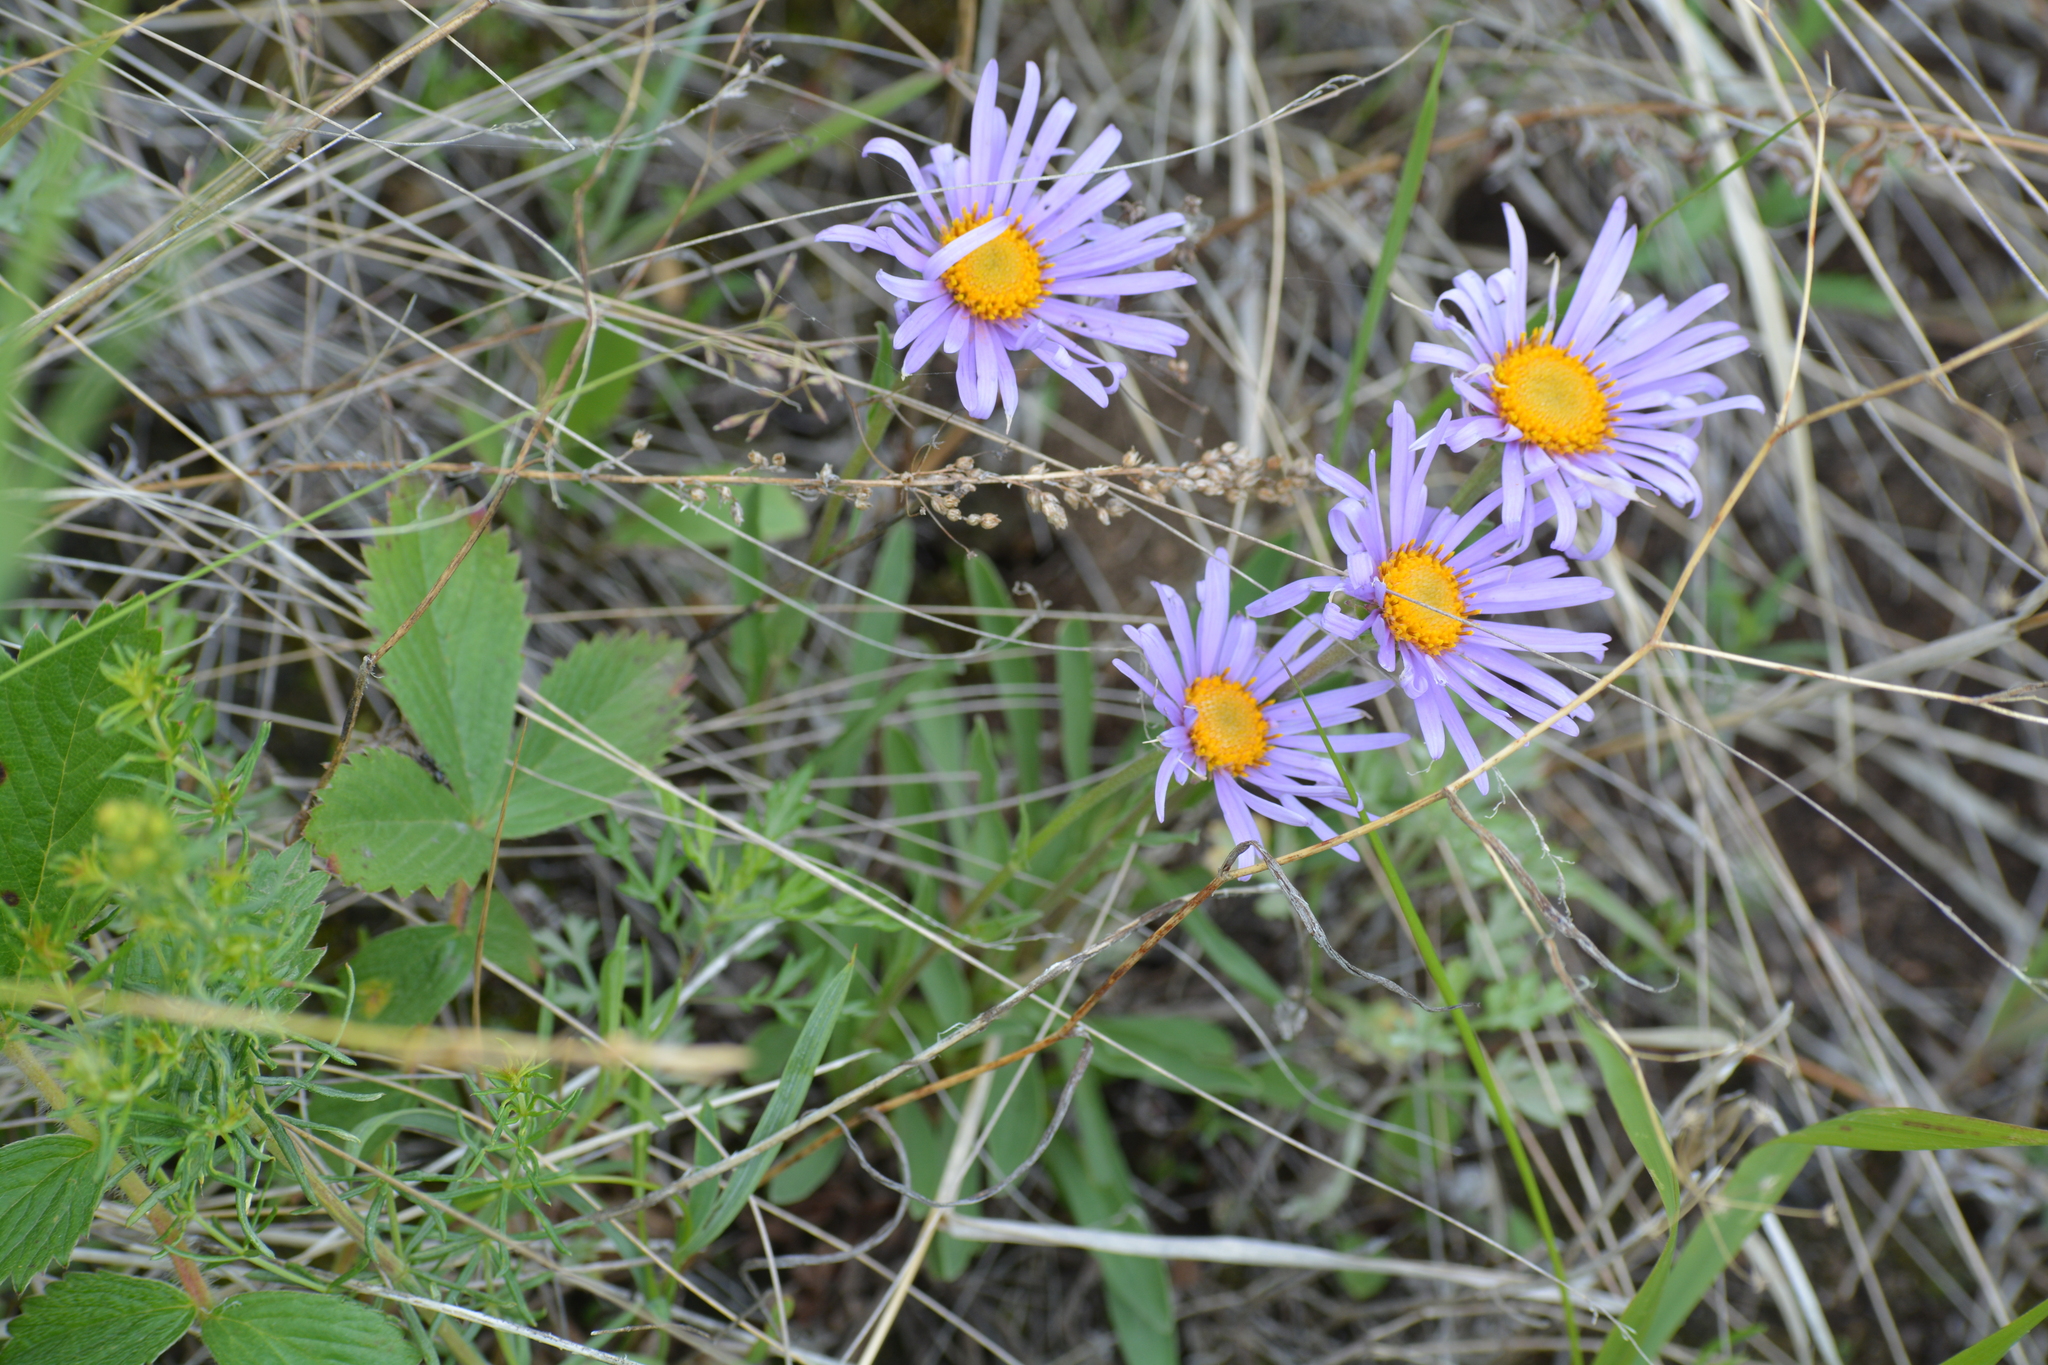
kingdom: Plantae
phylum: Tracheophyta
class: Magnoliopsida
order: Asterales
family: Asteraceae
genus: Aster
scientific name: Aster alpinus
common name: Alpine aster
